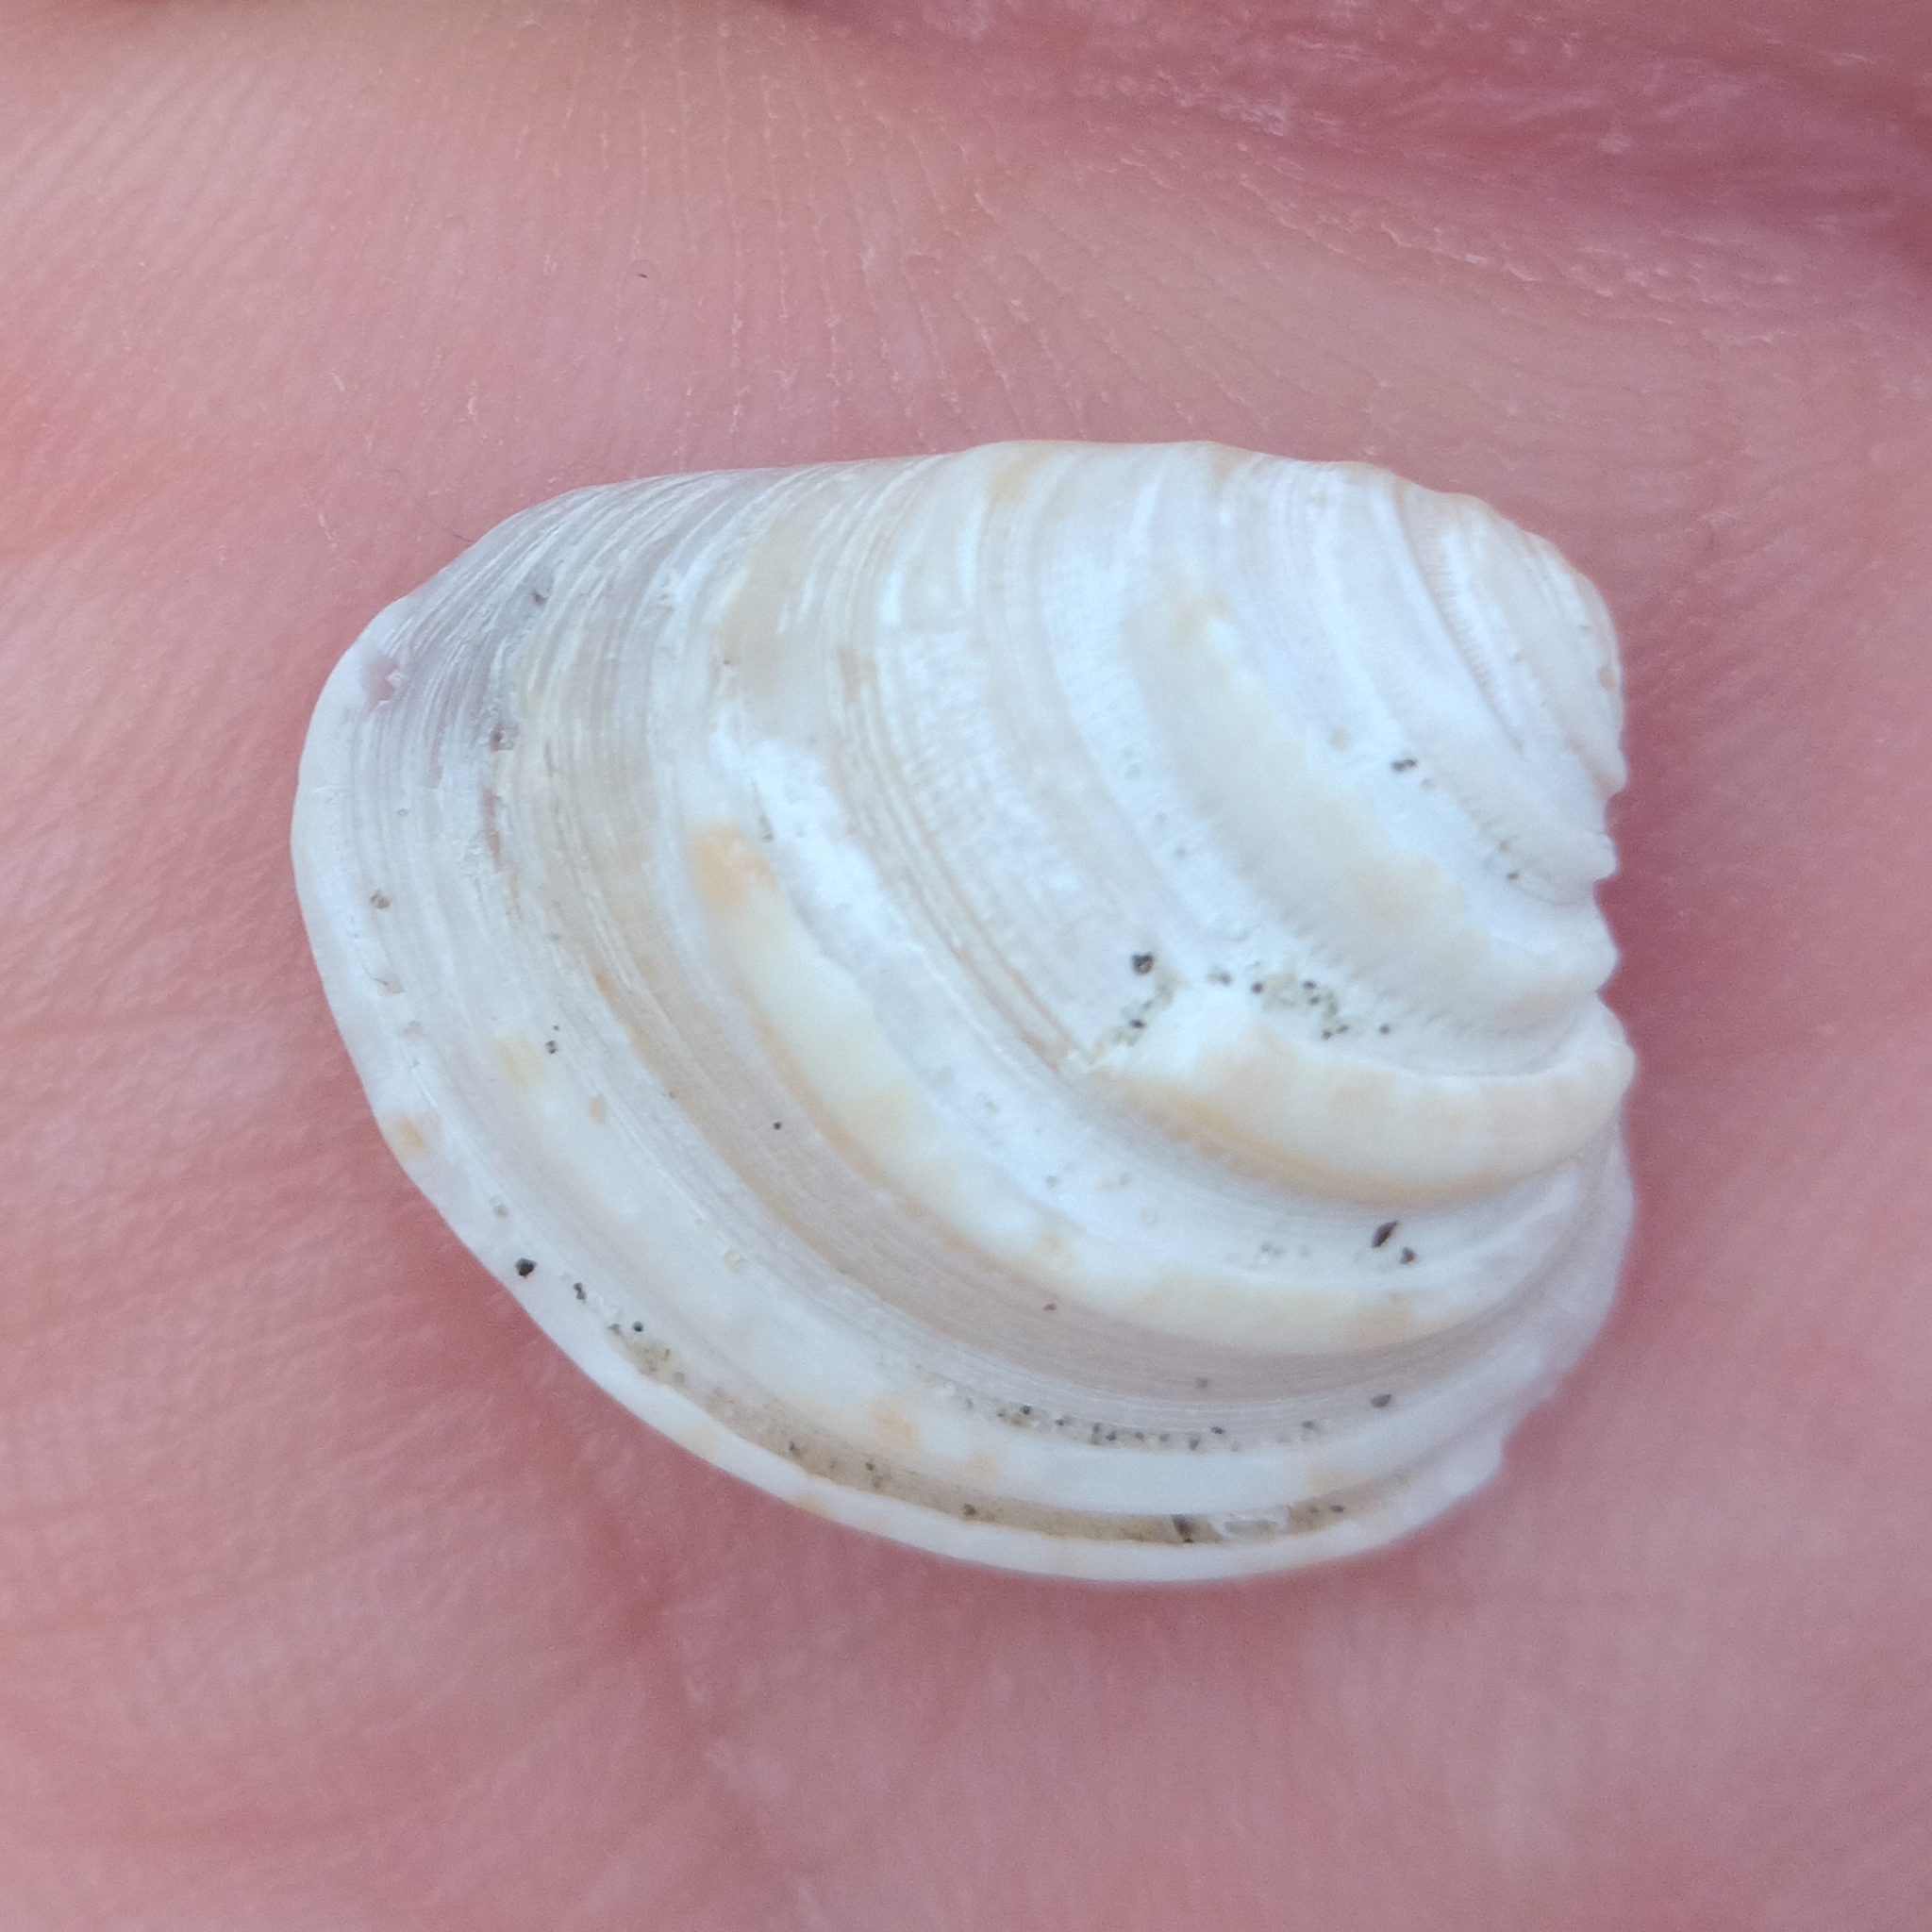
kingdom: Animalia
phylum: Mollusca
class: Bivalvia
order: Venerida
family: Veneridae
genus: Lirophora
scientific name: Lirophora paphia
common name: King venus
